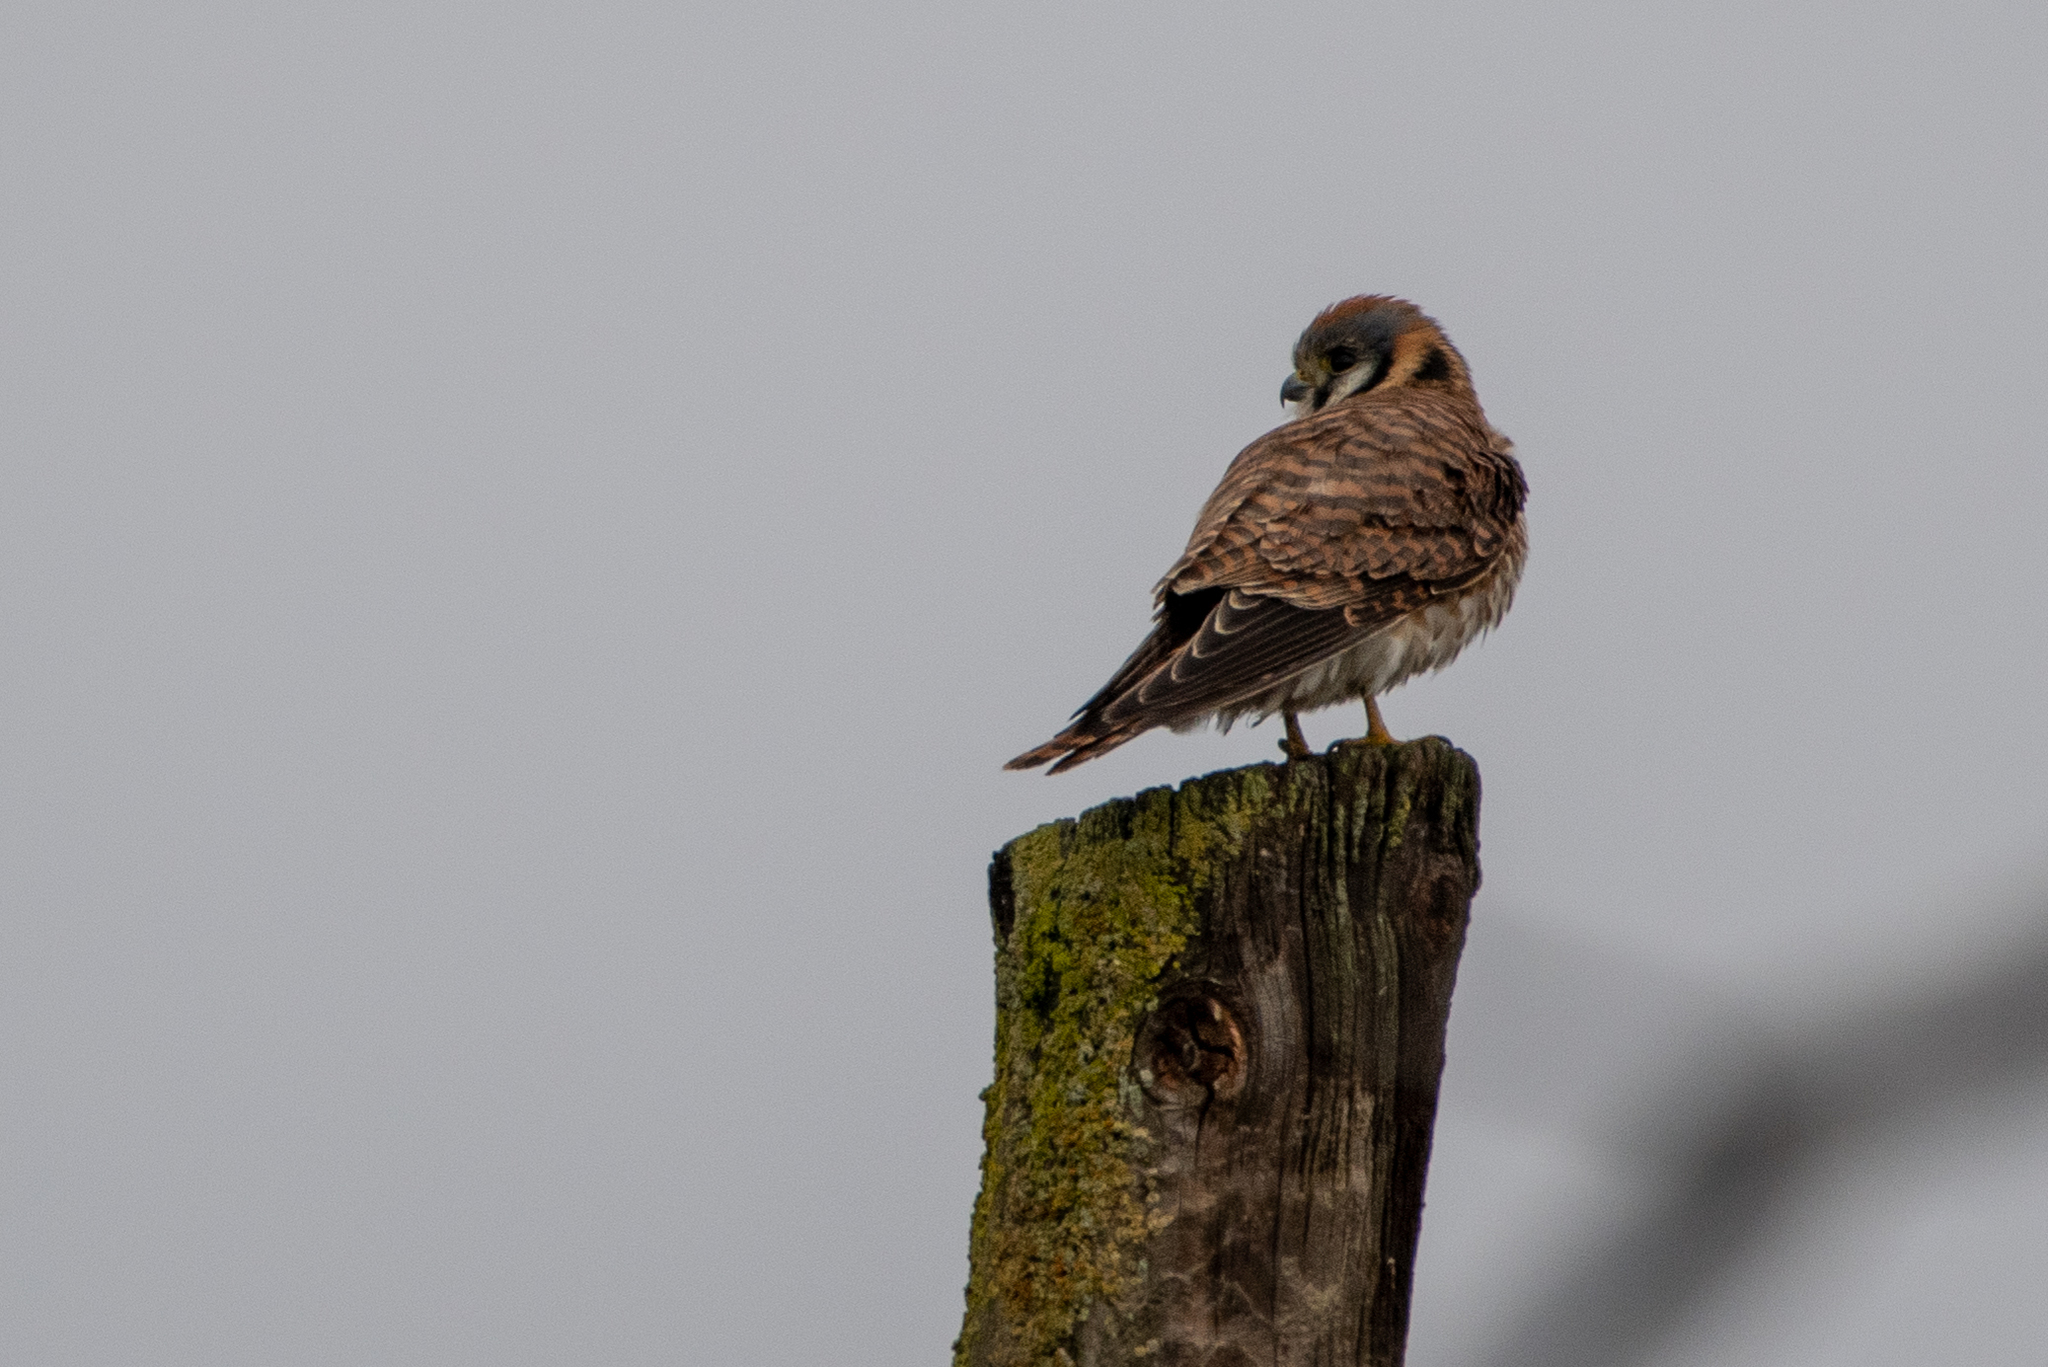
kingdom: Animalia
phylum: Chordata
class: Aves
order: Falconiformes
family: Falconidae
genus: Falco
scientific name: Falco sparverius
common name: American kestrel
